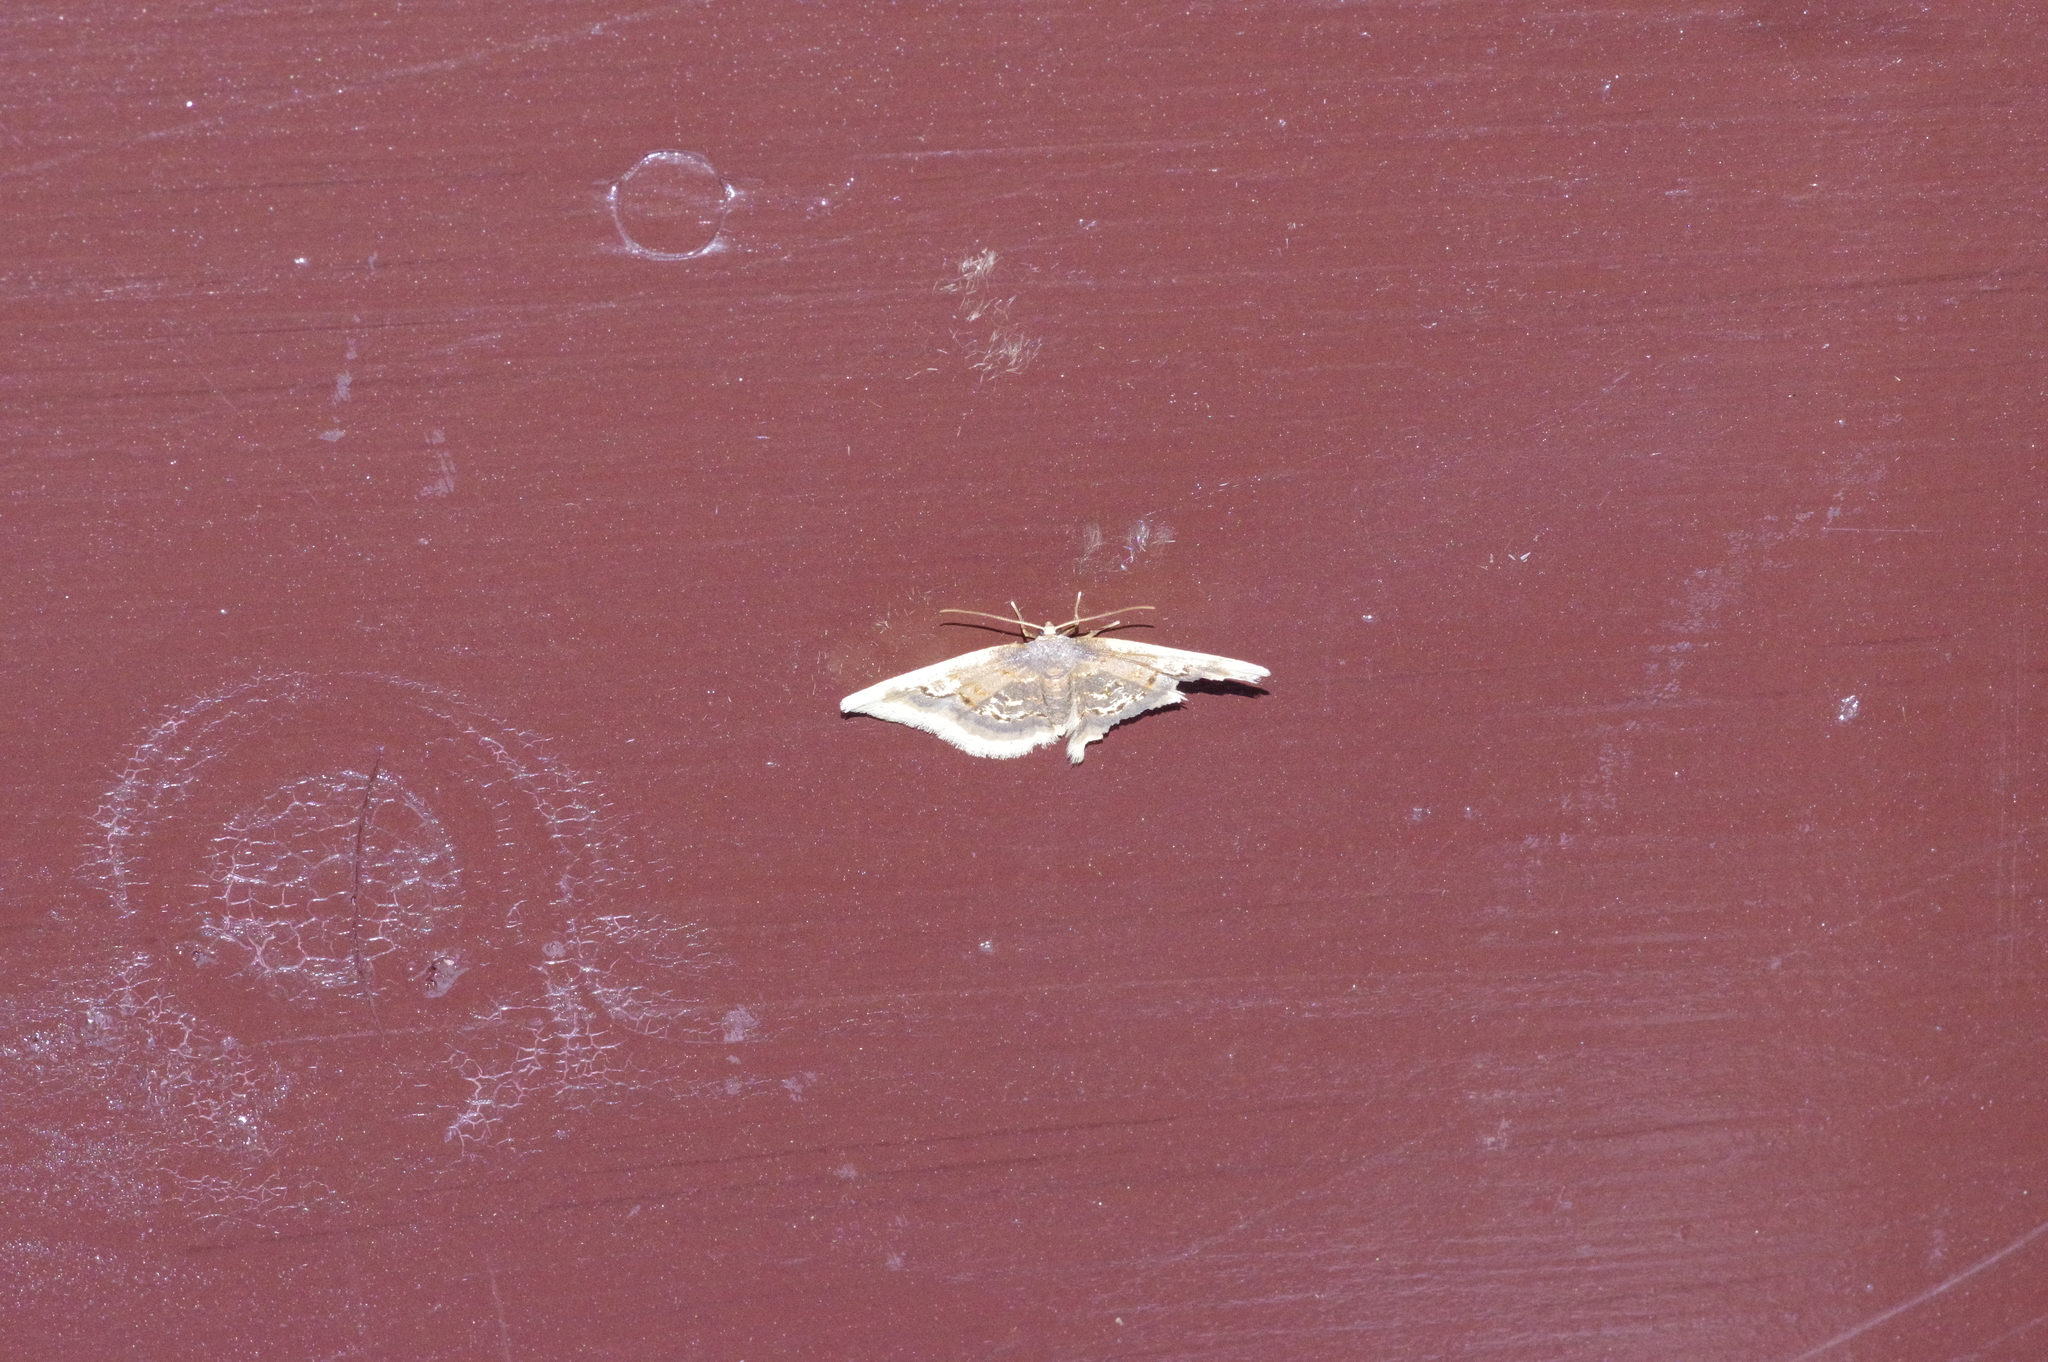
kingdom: Animalia
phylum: Arthropoda
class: Insecta
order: Lepidoptera
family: Geometridae
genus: Ninodes
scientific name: Ninodes watanabei
